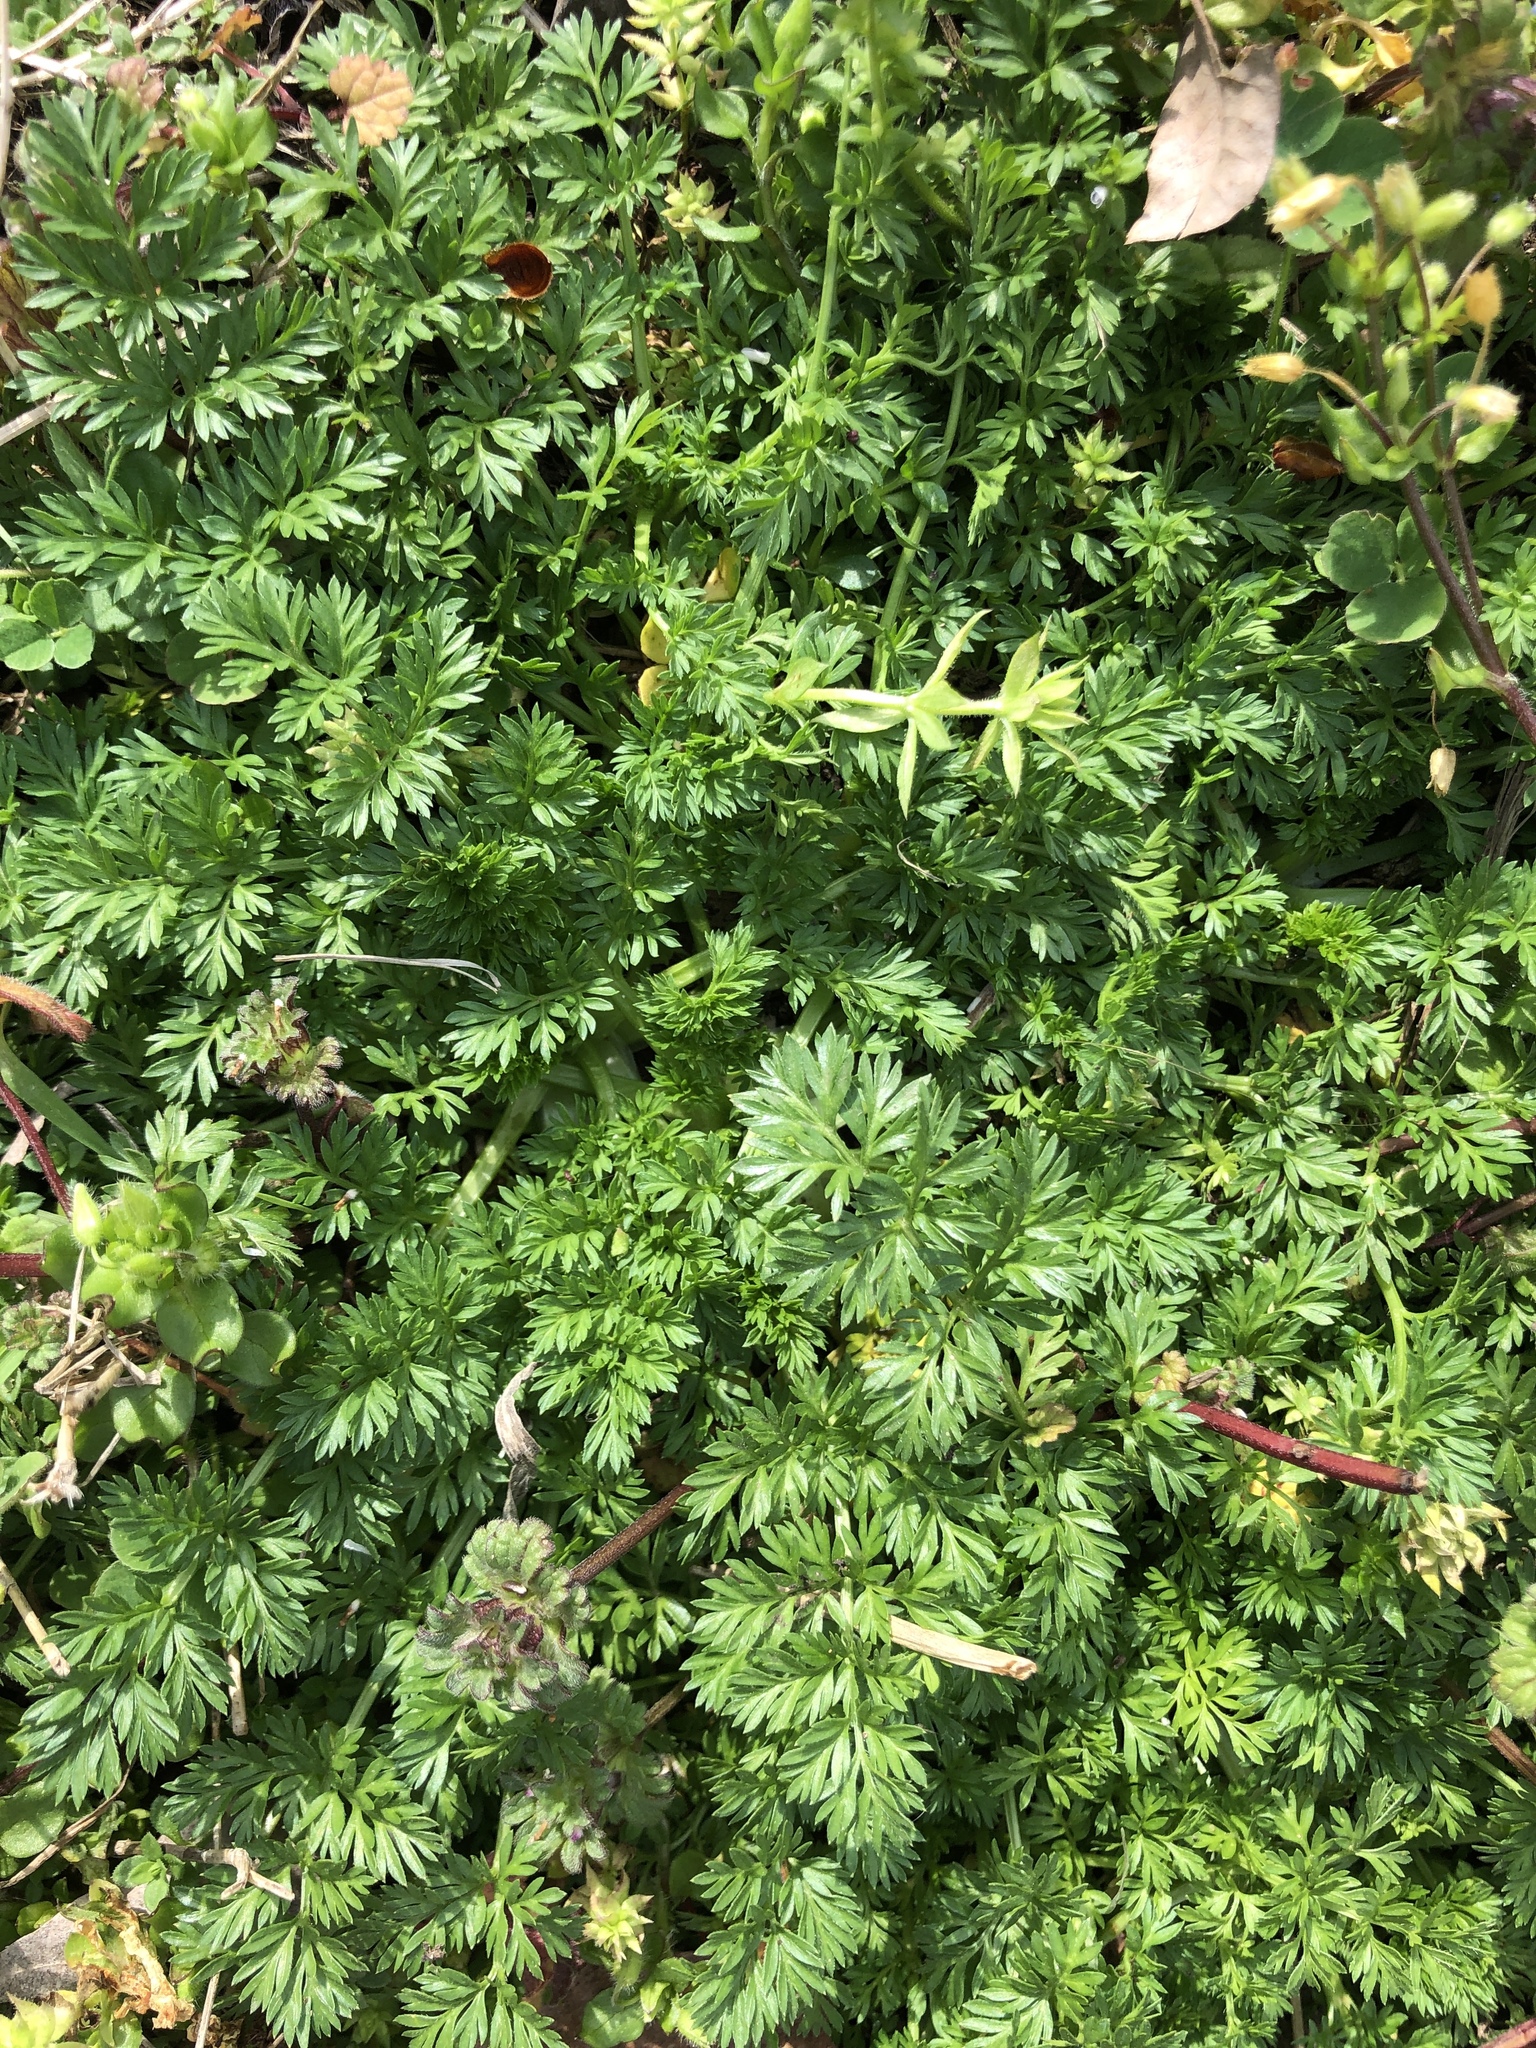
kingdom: Plantae
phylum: Tracheophyta
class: Magnoliopsida
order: Apiales
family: Apiaceae
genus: Daucus
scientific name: Daucus carota
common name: Wild carrot
